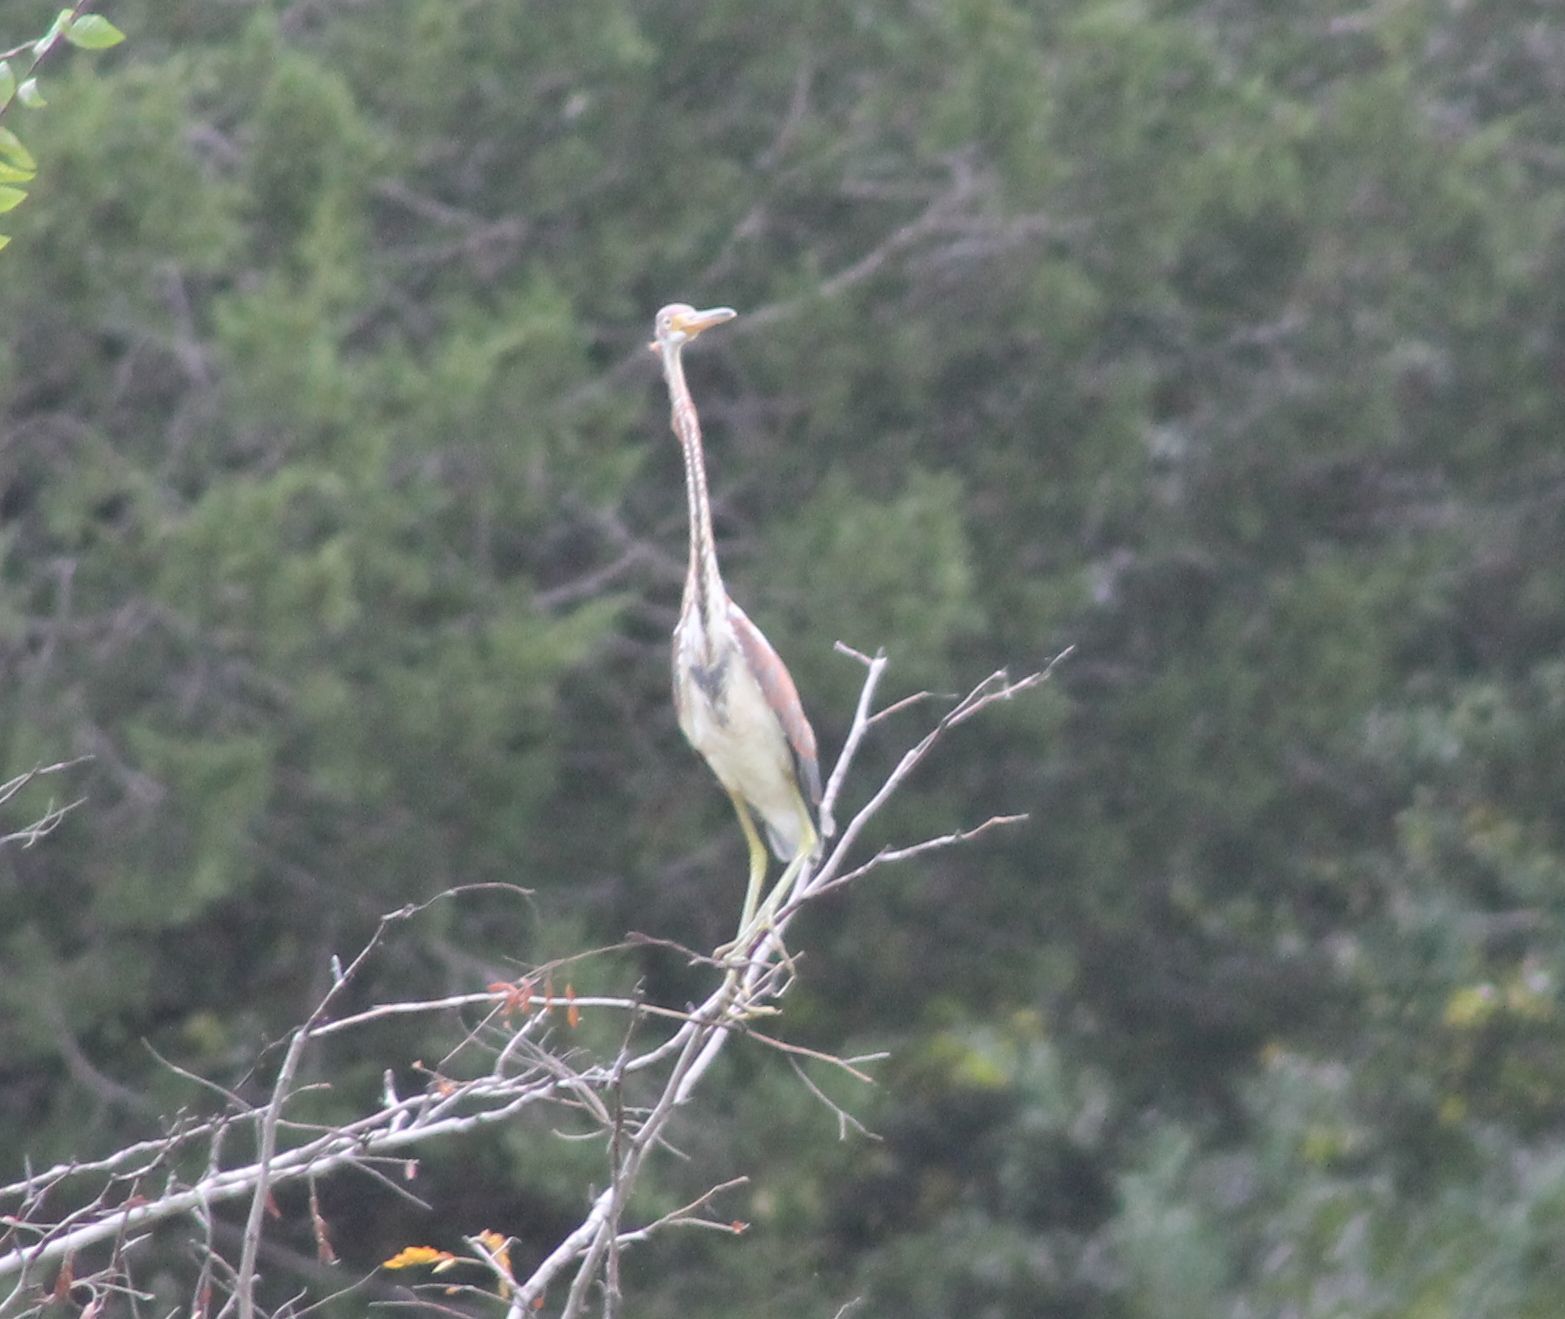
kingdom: Animalia
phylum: Chordata
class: Aves
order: Pelecaniformes
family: Ardeidae
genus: Egretta
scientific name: Egretta tricolor
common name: Tricolored heron
